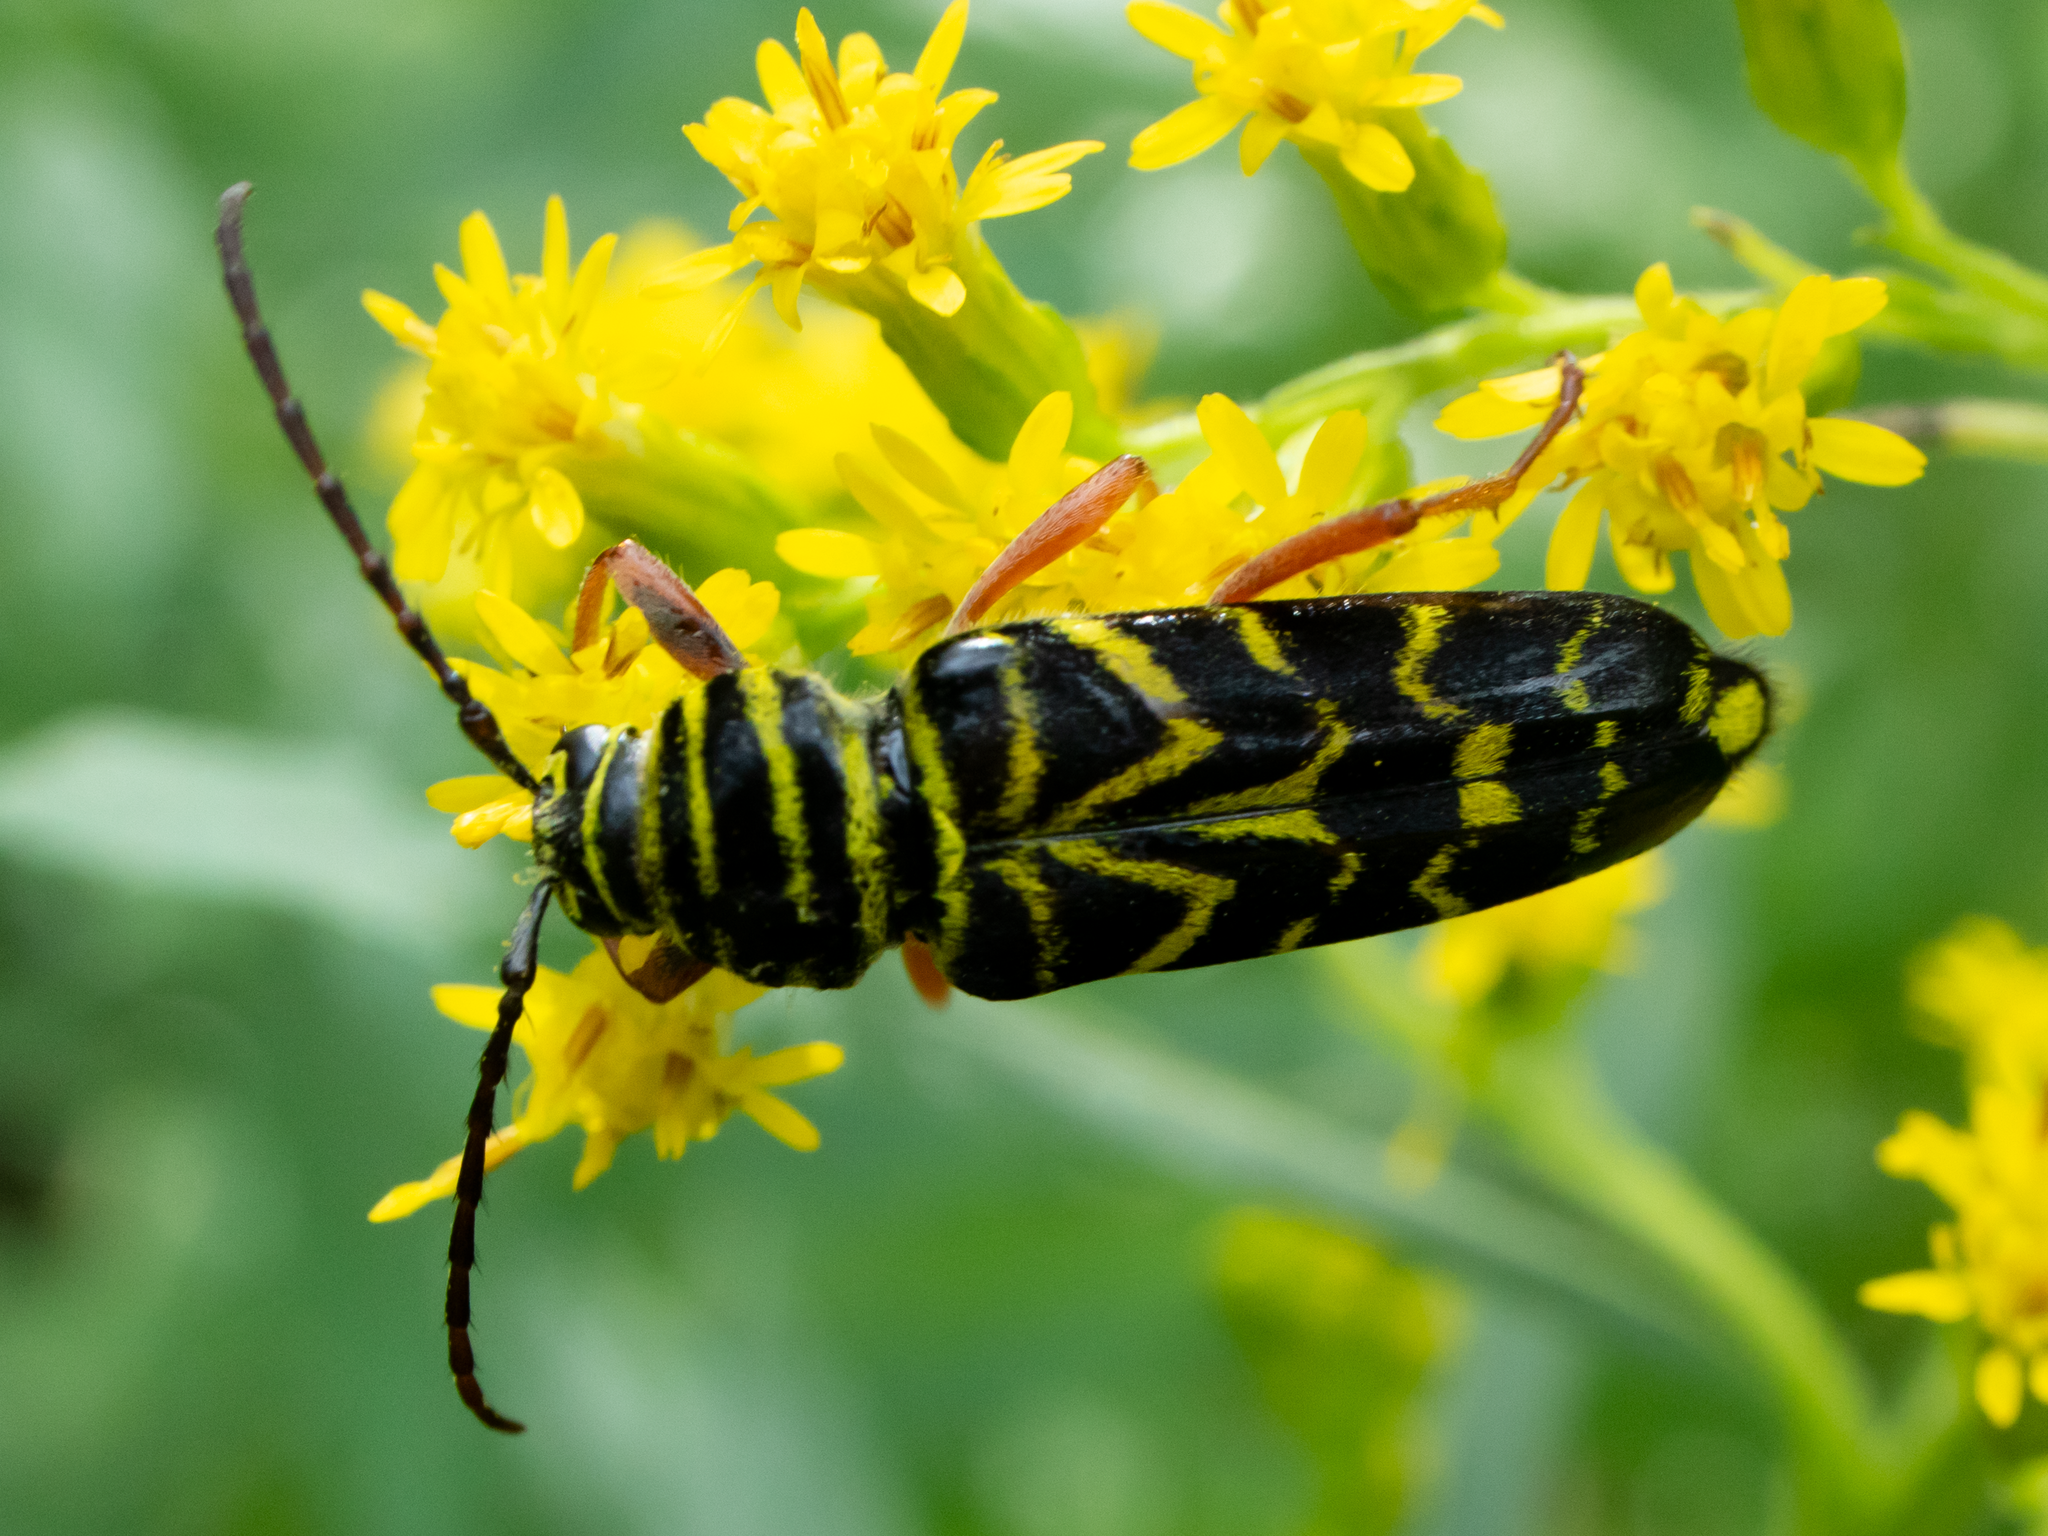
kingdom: Animalia
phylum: Arthropoda
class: Insecta
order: Coleoptera
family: Cerambycidae
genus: Megacyllene
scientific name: Megacyllene robiniae
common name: Locust borer
